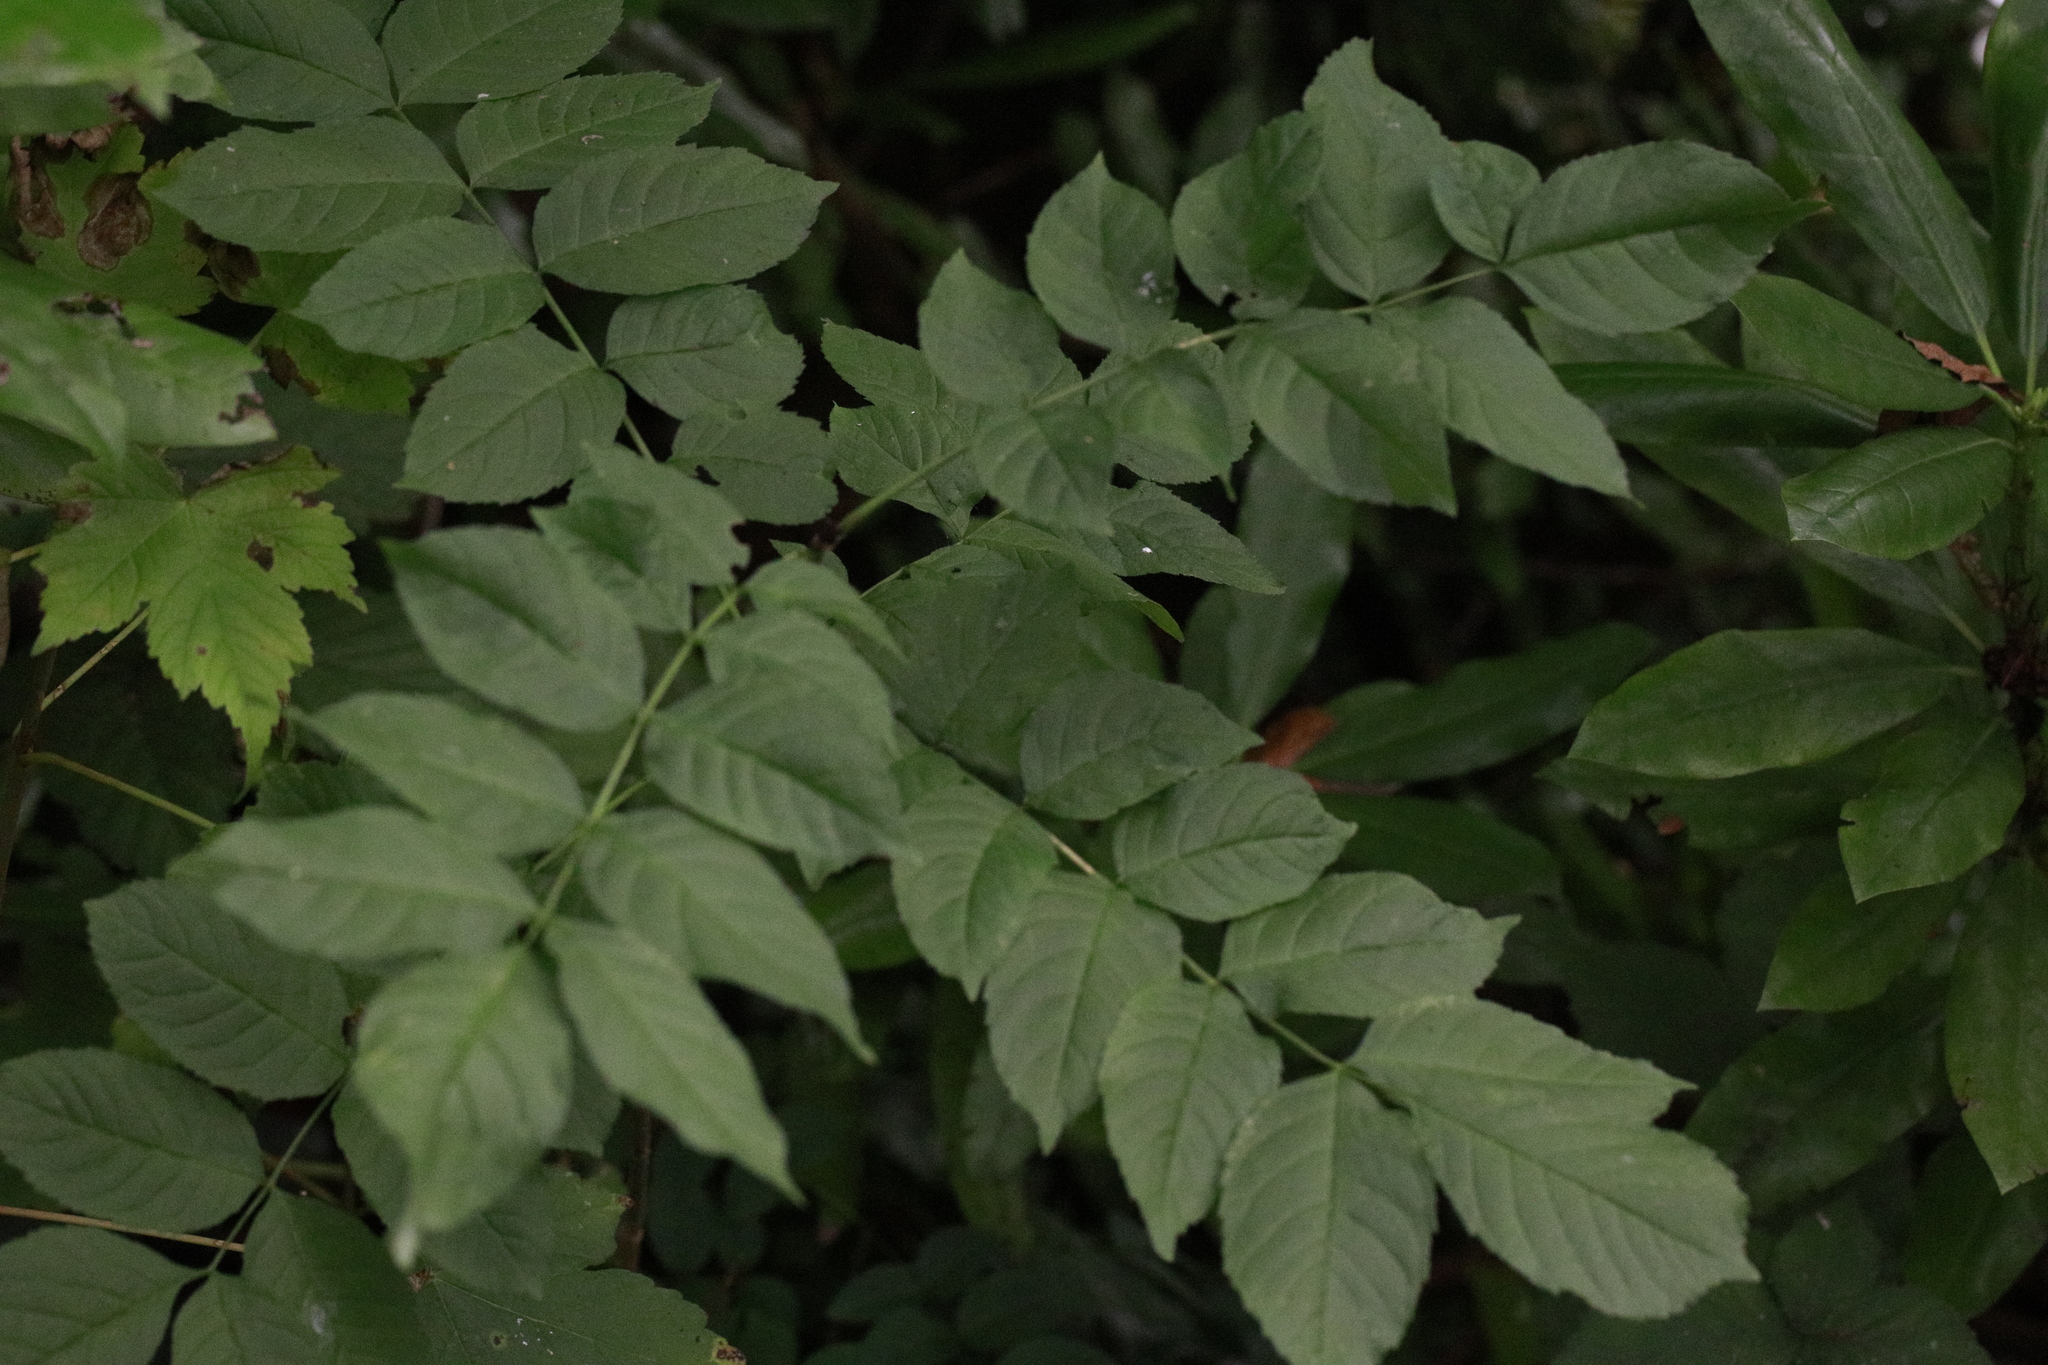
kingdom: Plantae
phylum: Tracheophyta
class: Magnoliopsida
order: Lamiales
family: Oleaceae
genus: Fraxinus
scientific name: Fraxinus excelsior
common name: European ash
